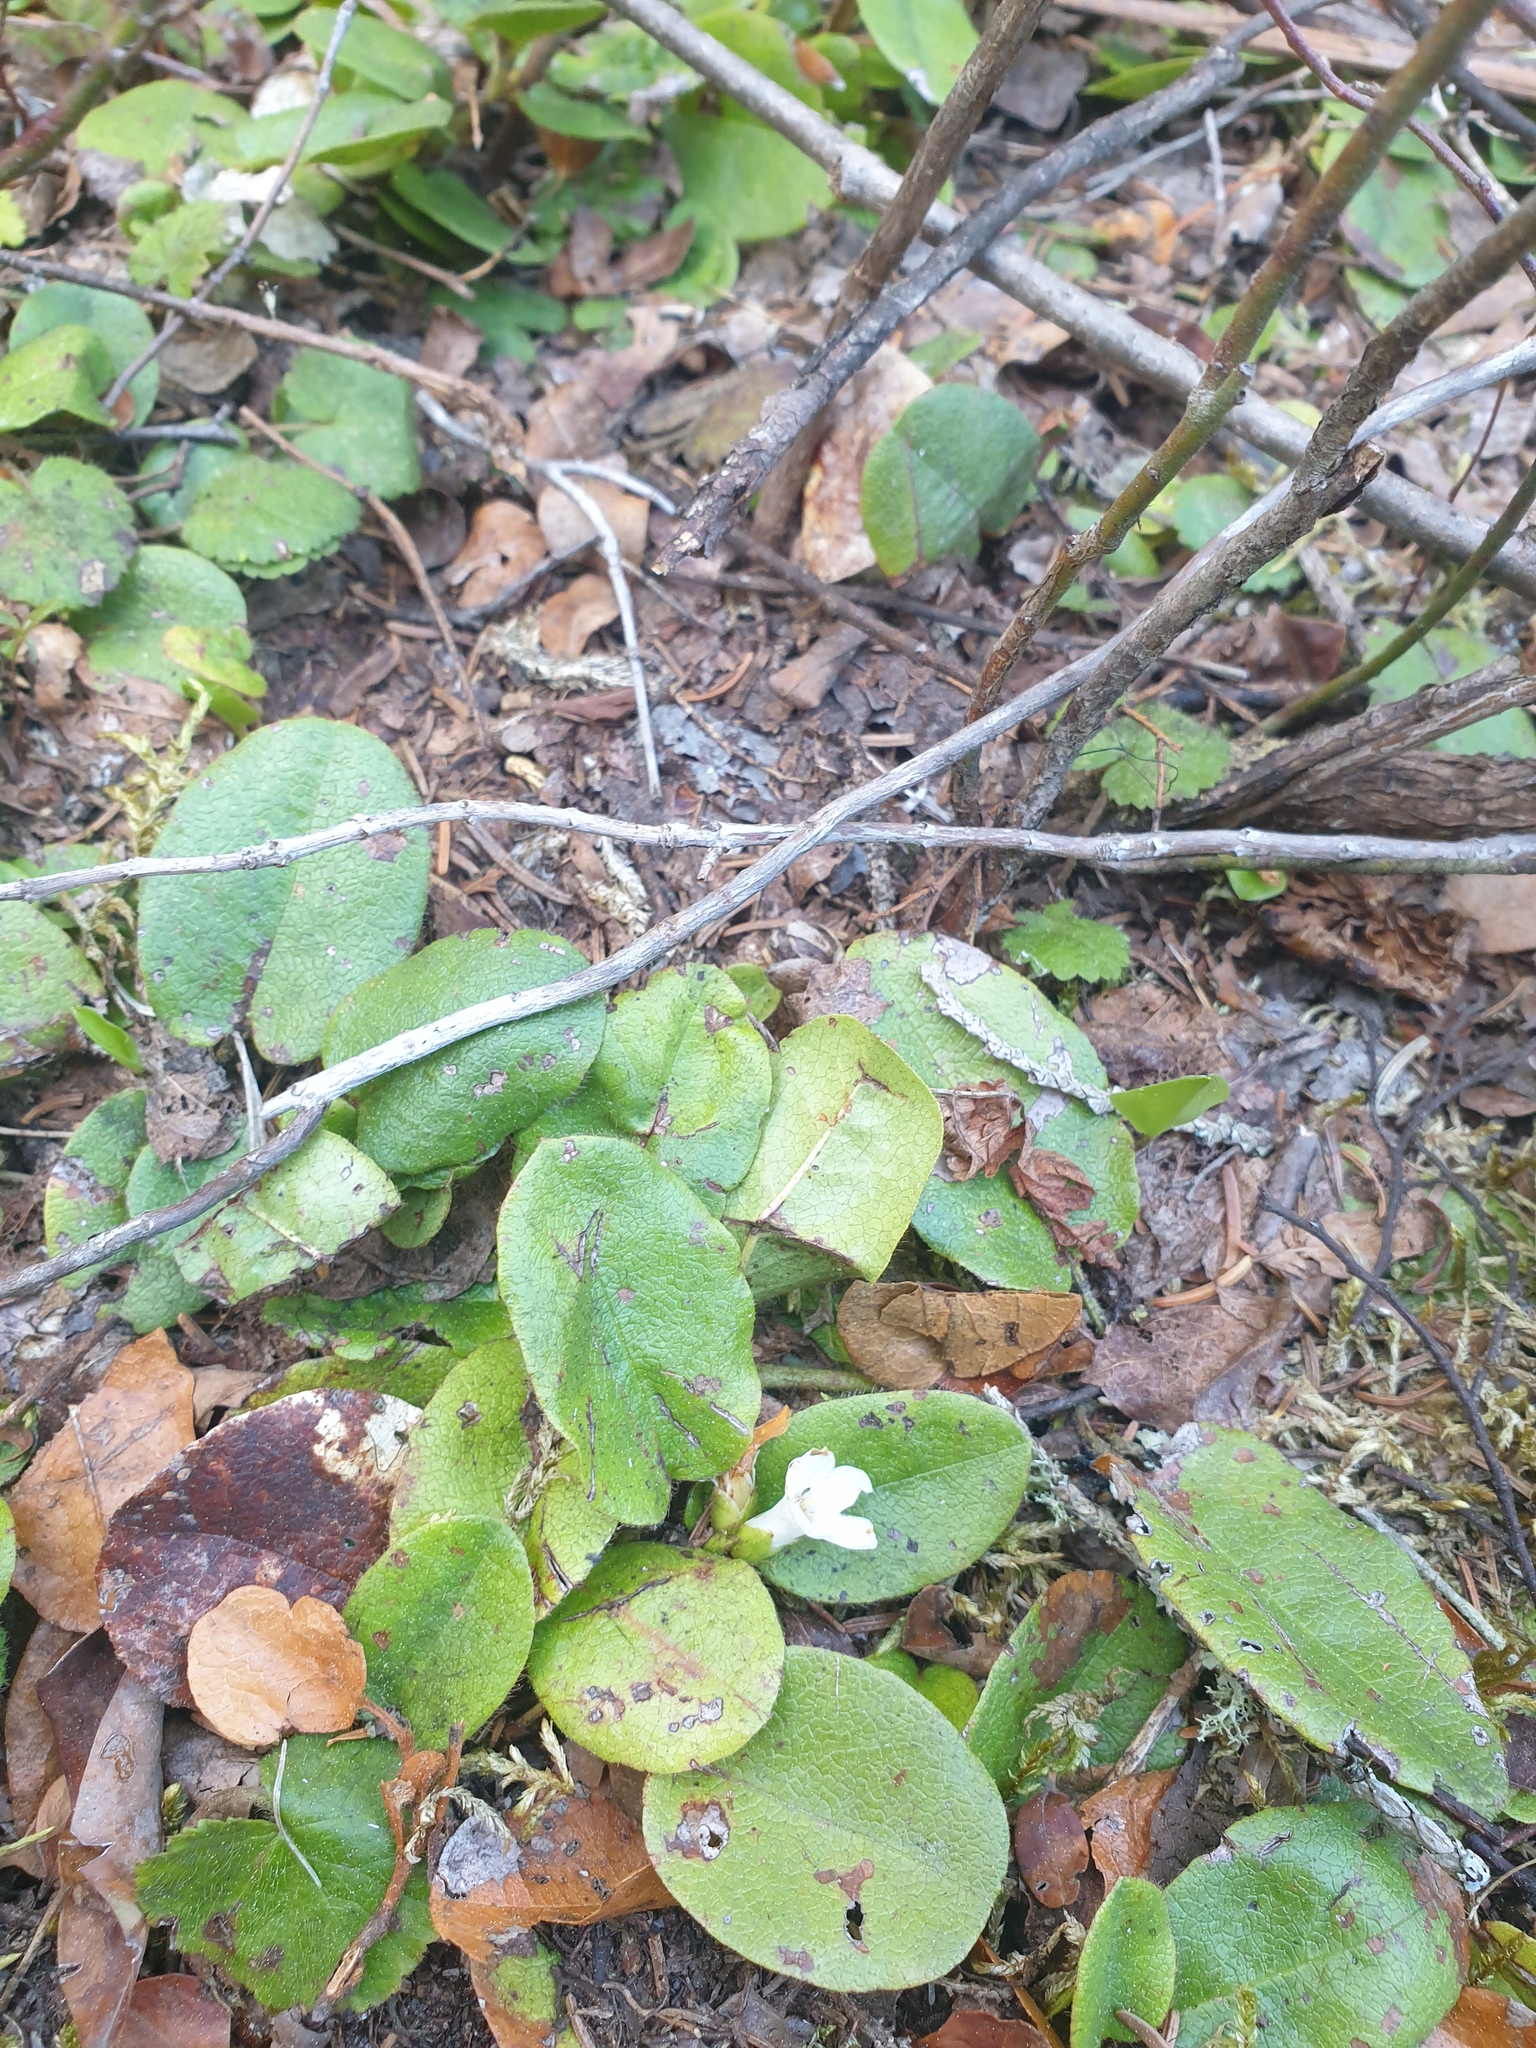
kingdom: Plantae
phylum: Tracheophyta
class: Magnoliopsida
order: Ericales
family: Ericaceae
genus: Epigaea
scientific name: Epigaea repens
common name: Gravelroot
